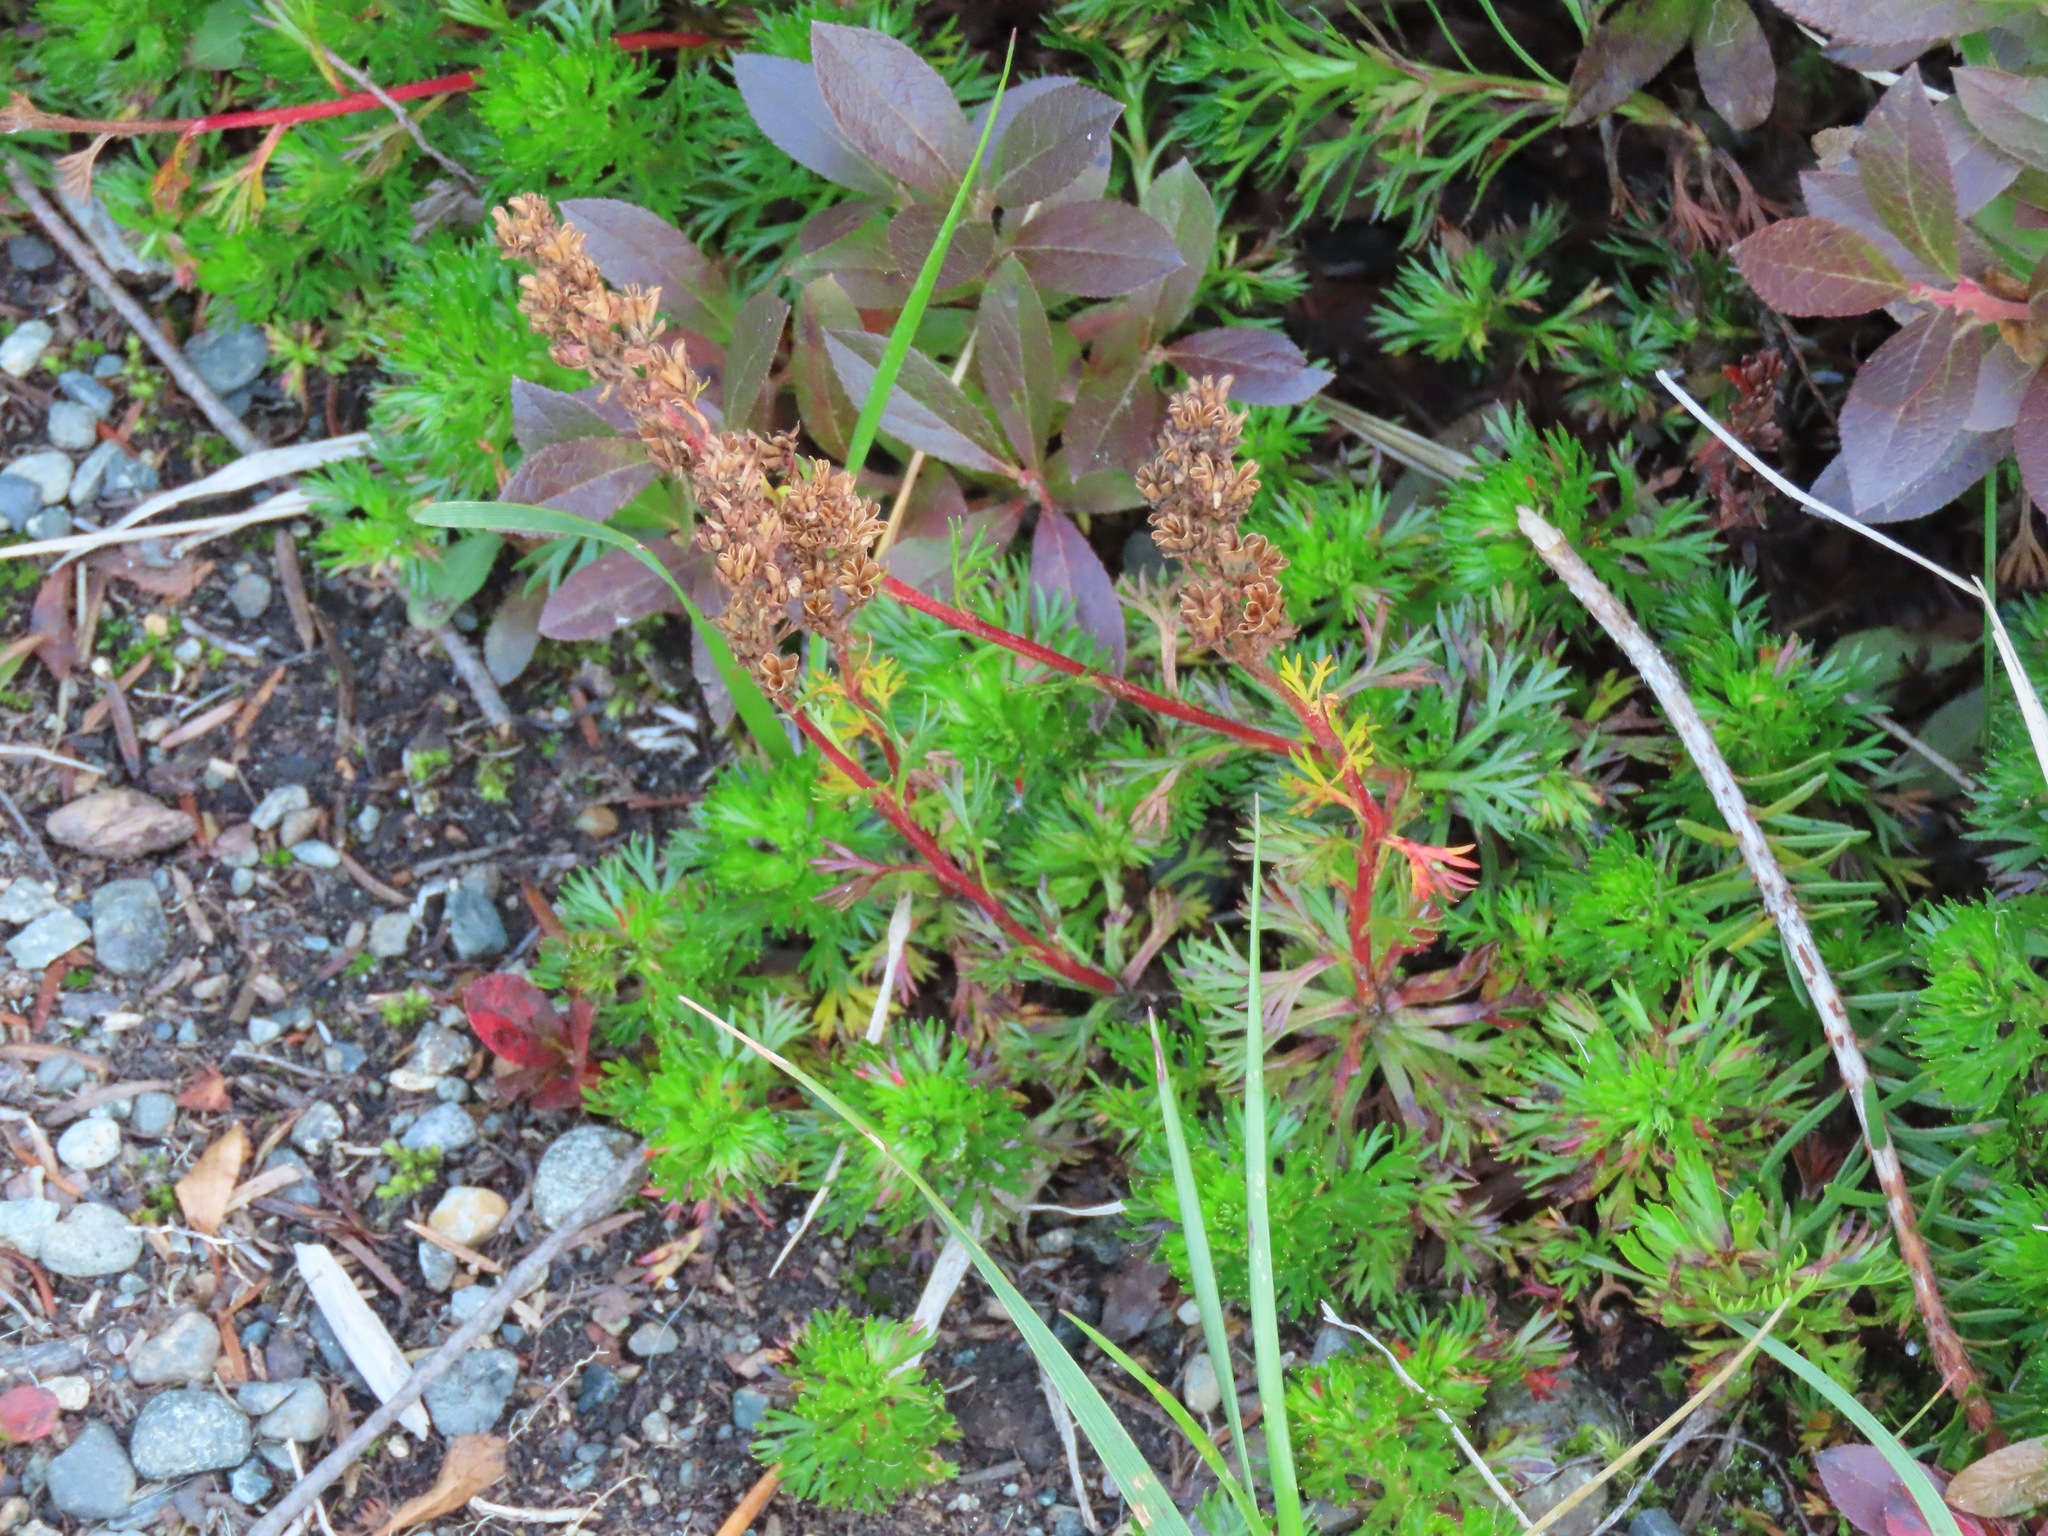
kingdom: Plantae
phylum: Tracheophyta
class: Magnoliopsida
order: Rosales
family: Rosaceae
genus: Luetkea
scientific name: Luetkea pectinata
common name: Partridgefoot
